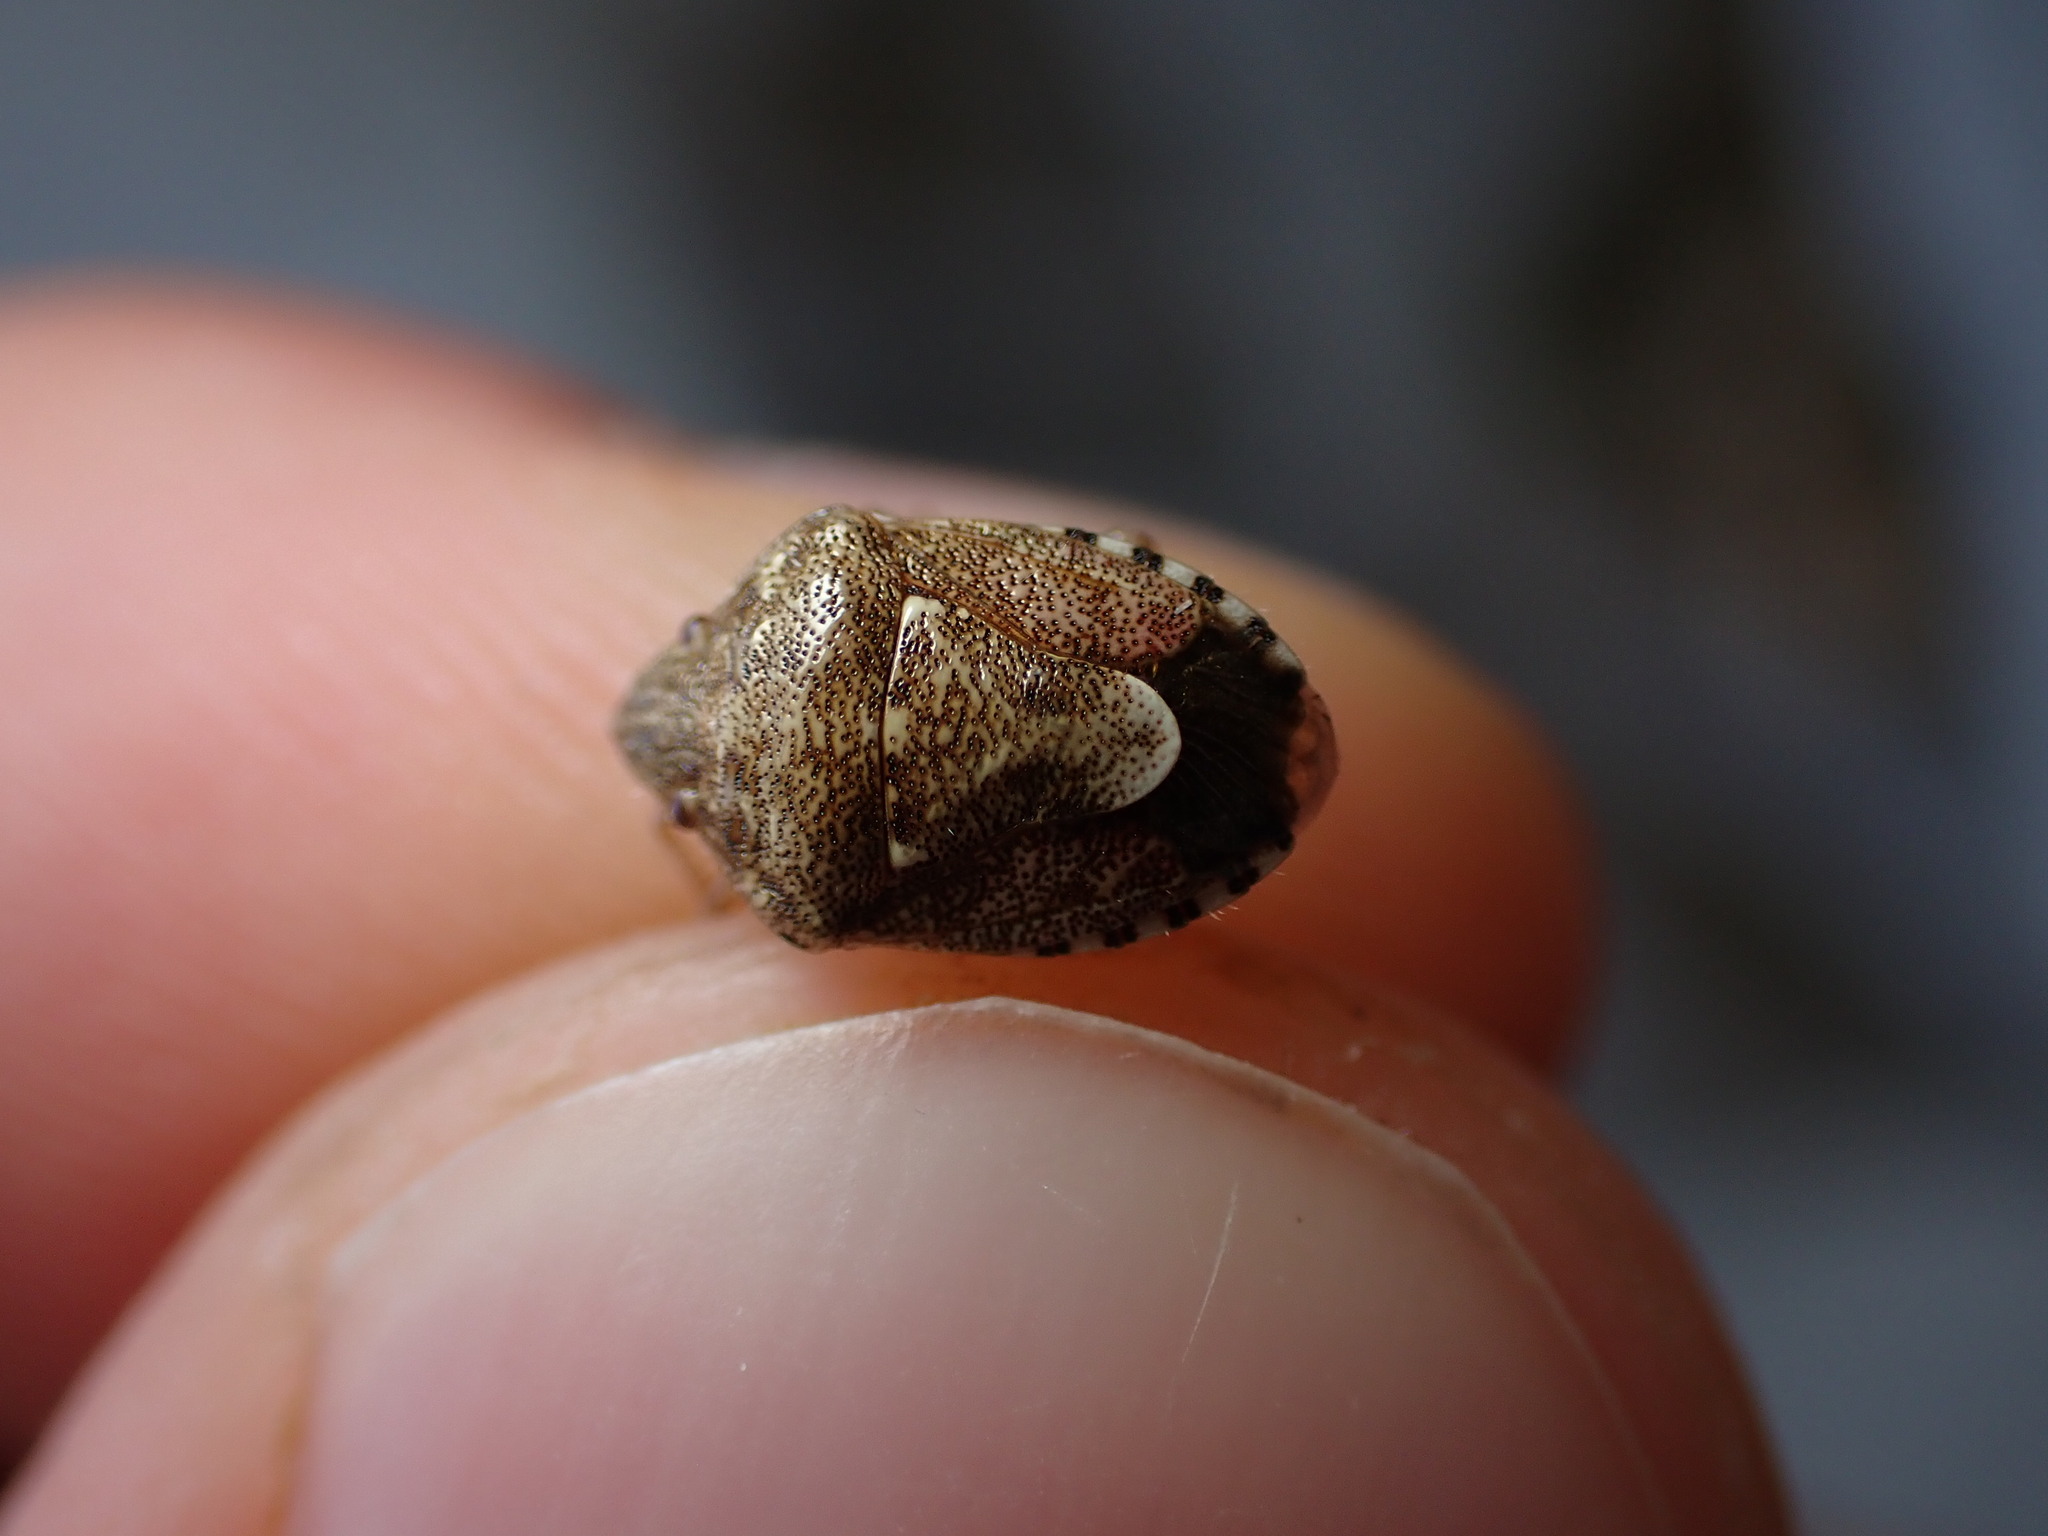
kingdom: Animalia
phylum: Arthropoda
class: Insecta
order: Hemiptera
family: Pentatomidae
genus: Staria
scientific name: Staria lunata
